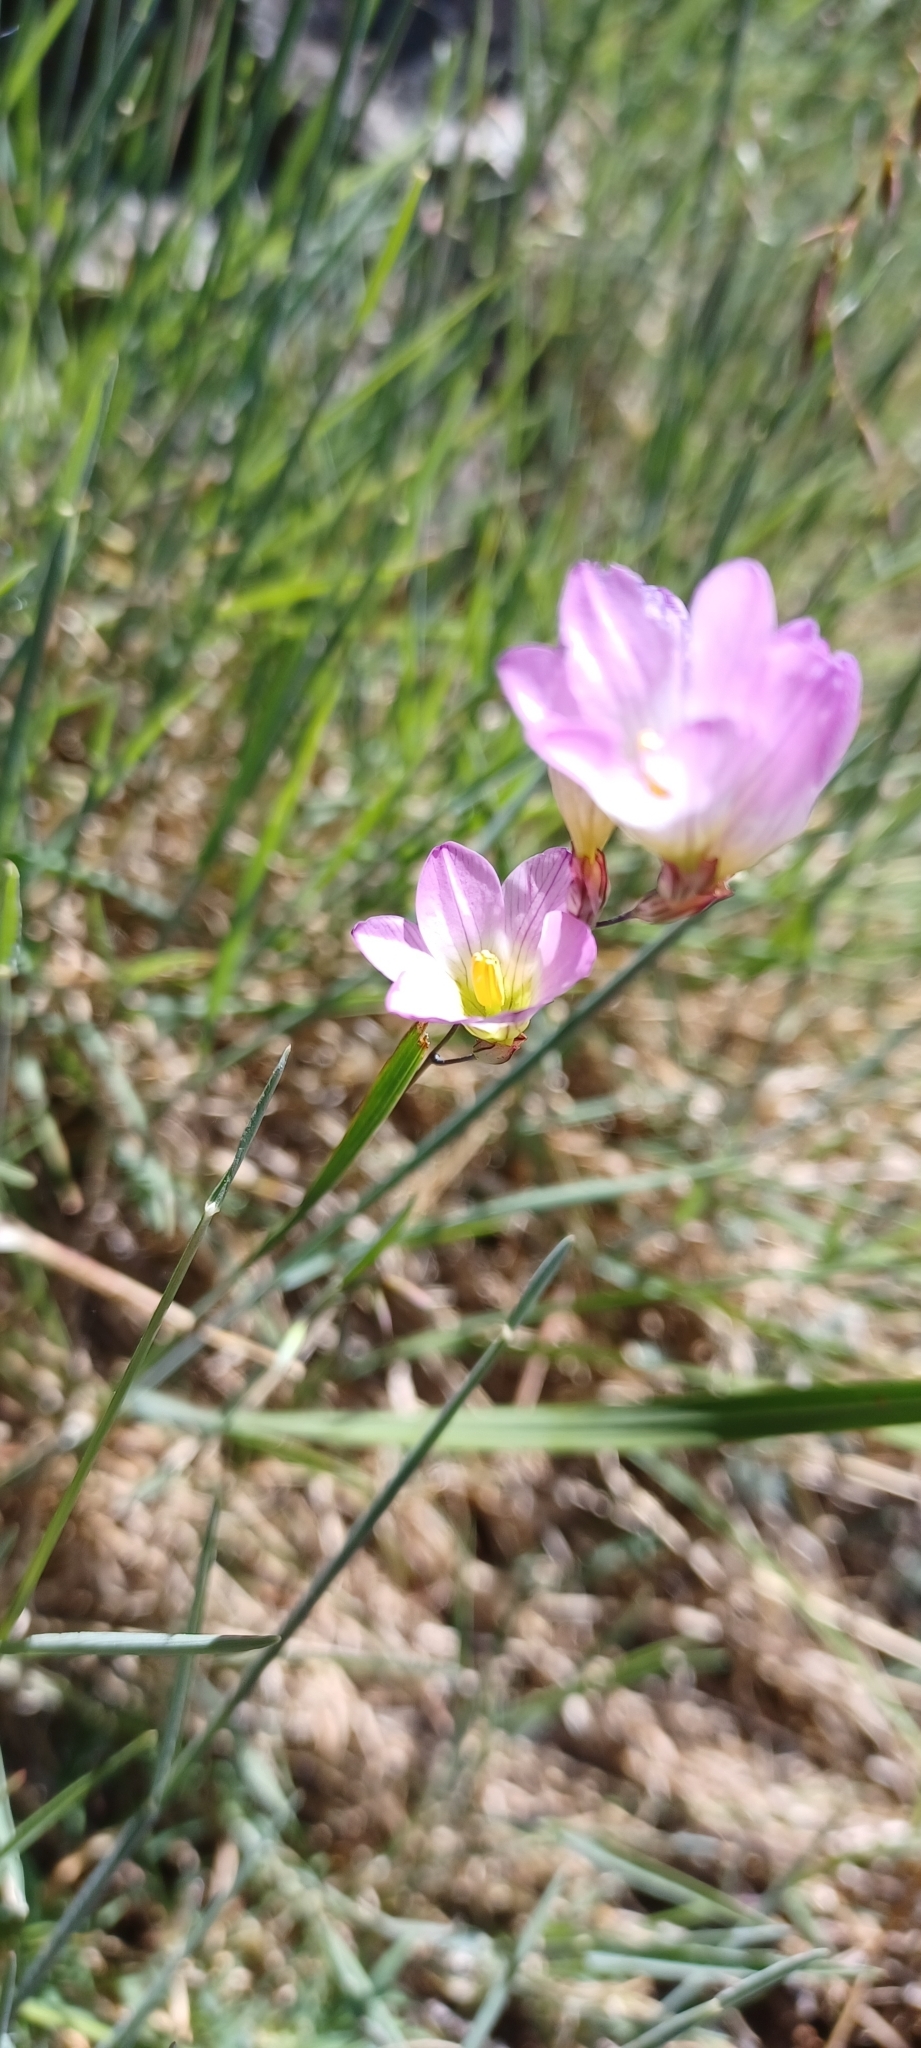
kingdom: Plantae
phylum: Tracheophyta
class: Liliopsida
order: Asparagales
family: Iridaceae
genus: Ixia
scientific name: Ixia oxalidiflora
